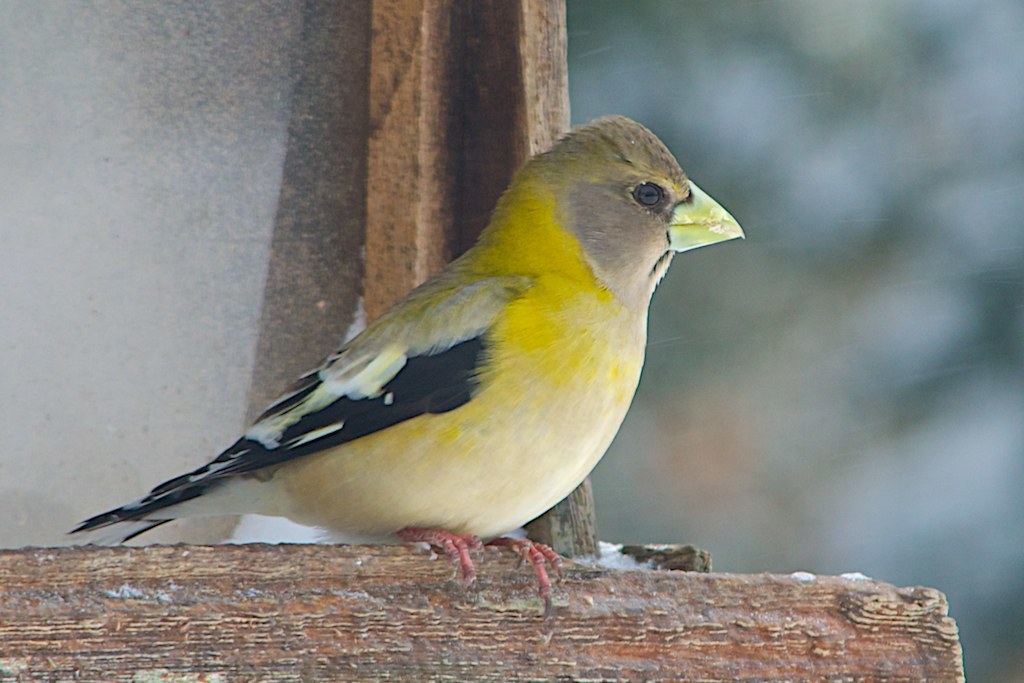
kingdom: Animalia
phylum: Chordata
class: Aves
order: Passeriformes
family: Fringillidae
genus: Hesperiphona
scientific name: Hesperiphona vespertina
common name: Evening grosbeak
